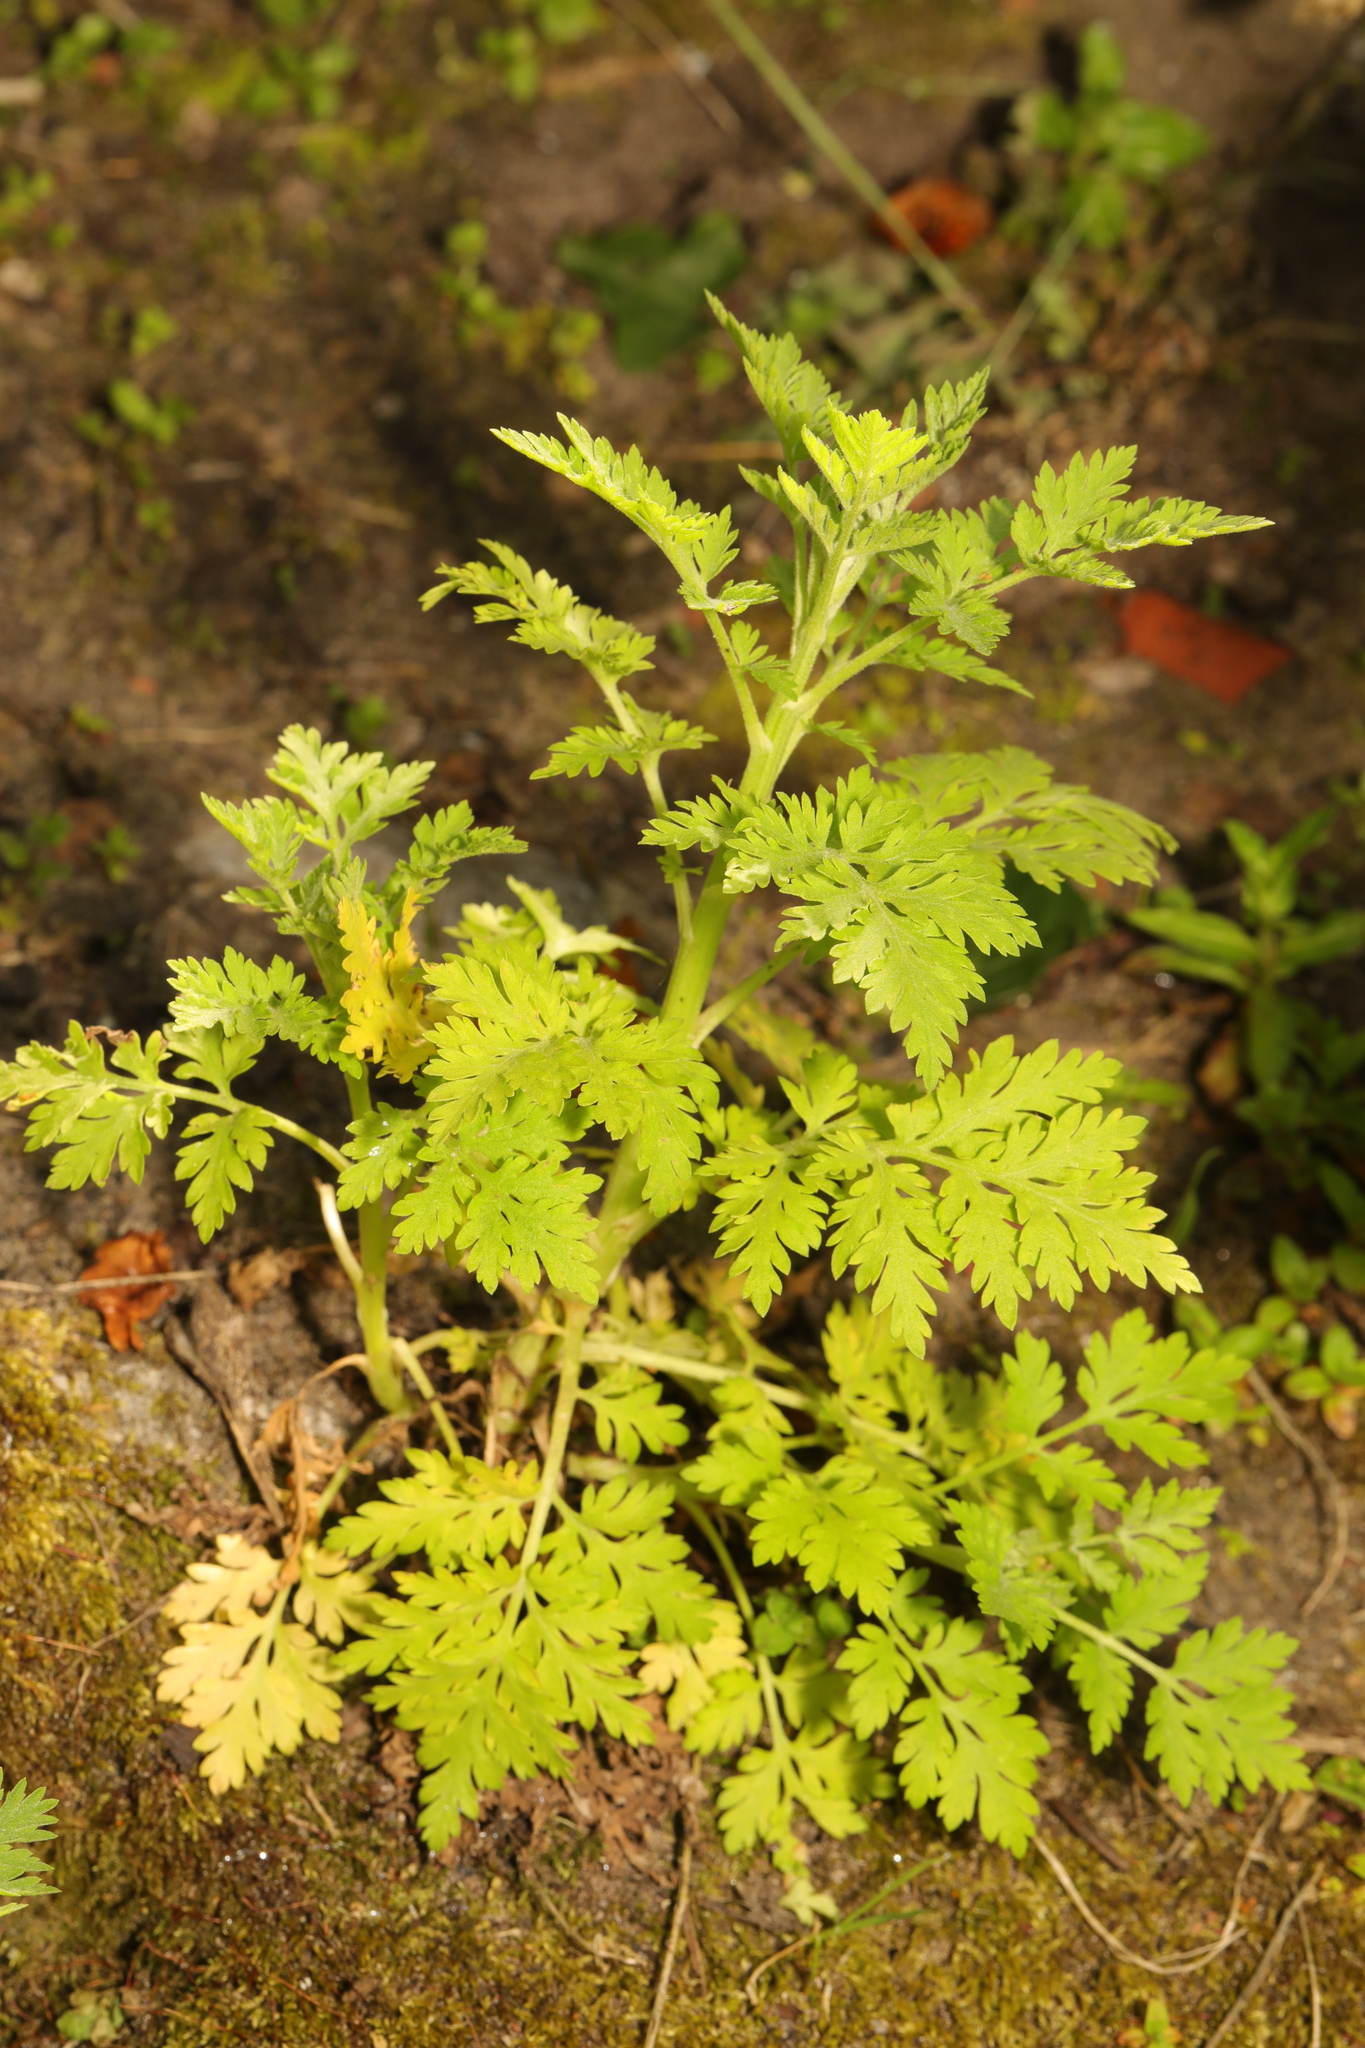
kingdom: Plantae
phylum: Tracheophyta
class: Magnoliopsida
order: Asterales
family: Asteraceae
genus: Tanacetum
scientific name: Tanacetum parthenium
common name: Feverfew
